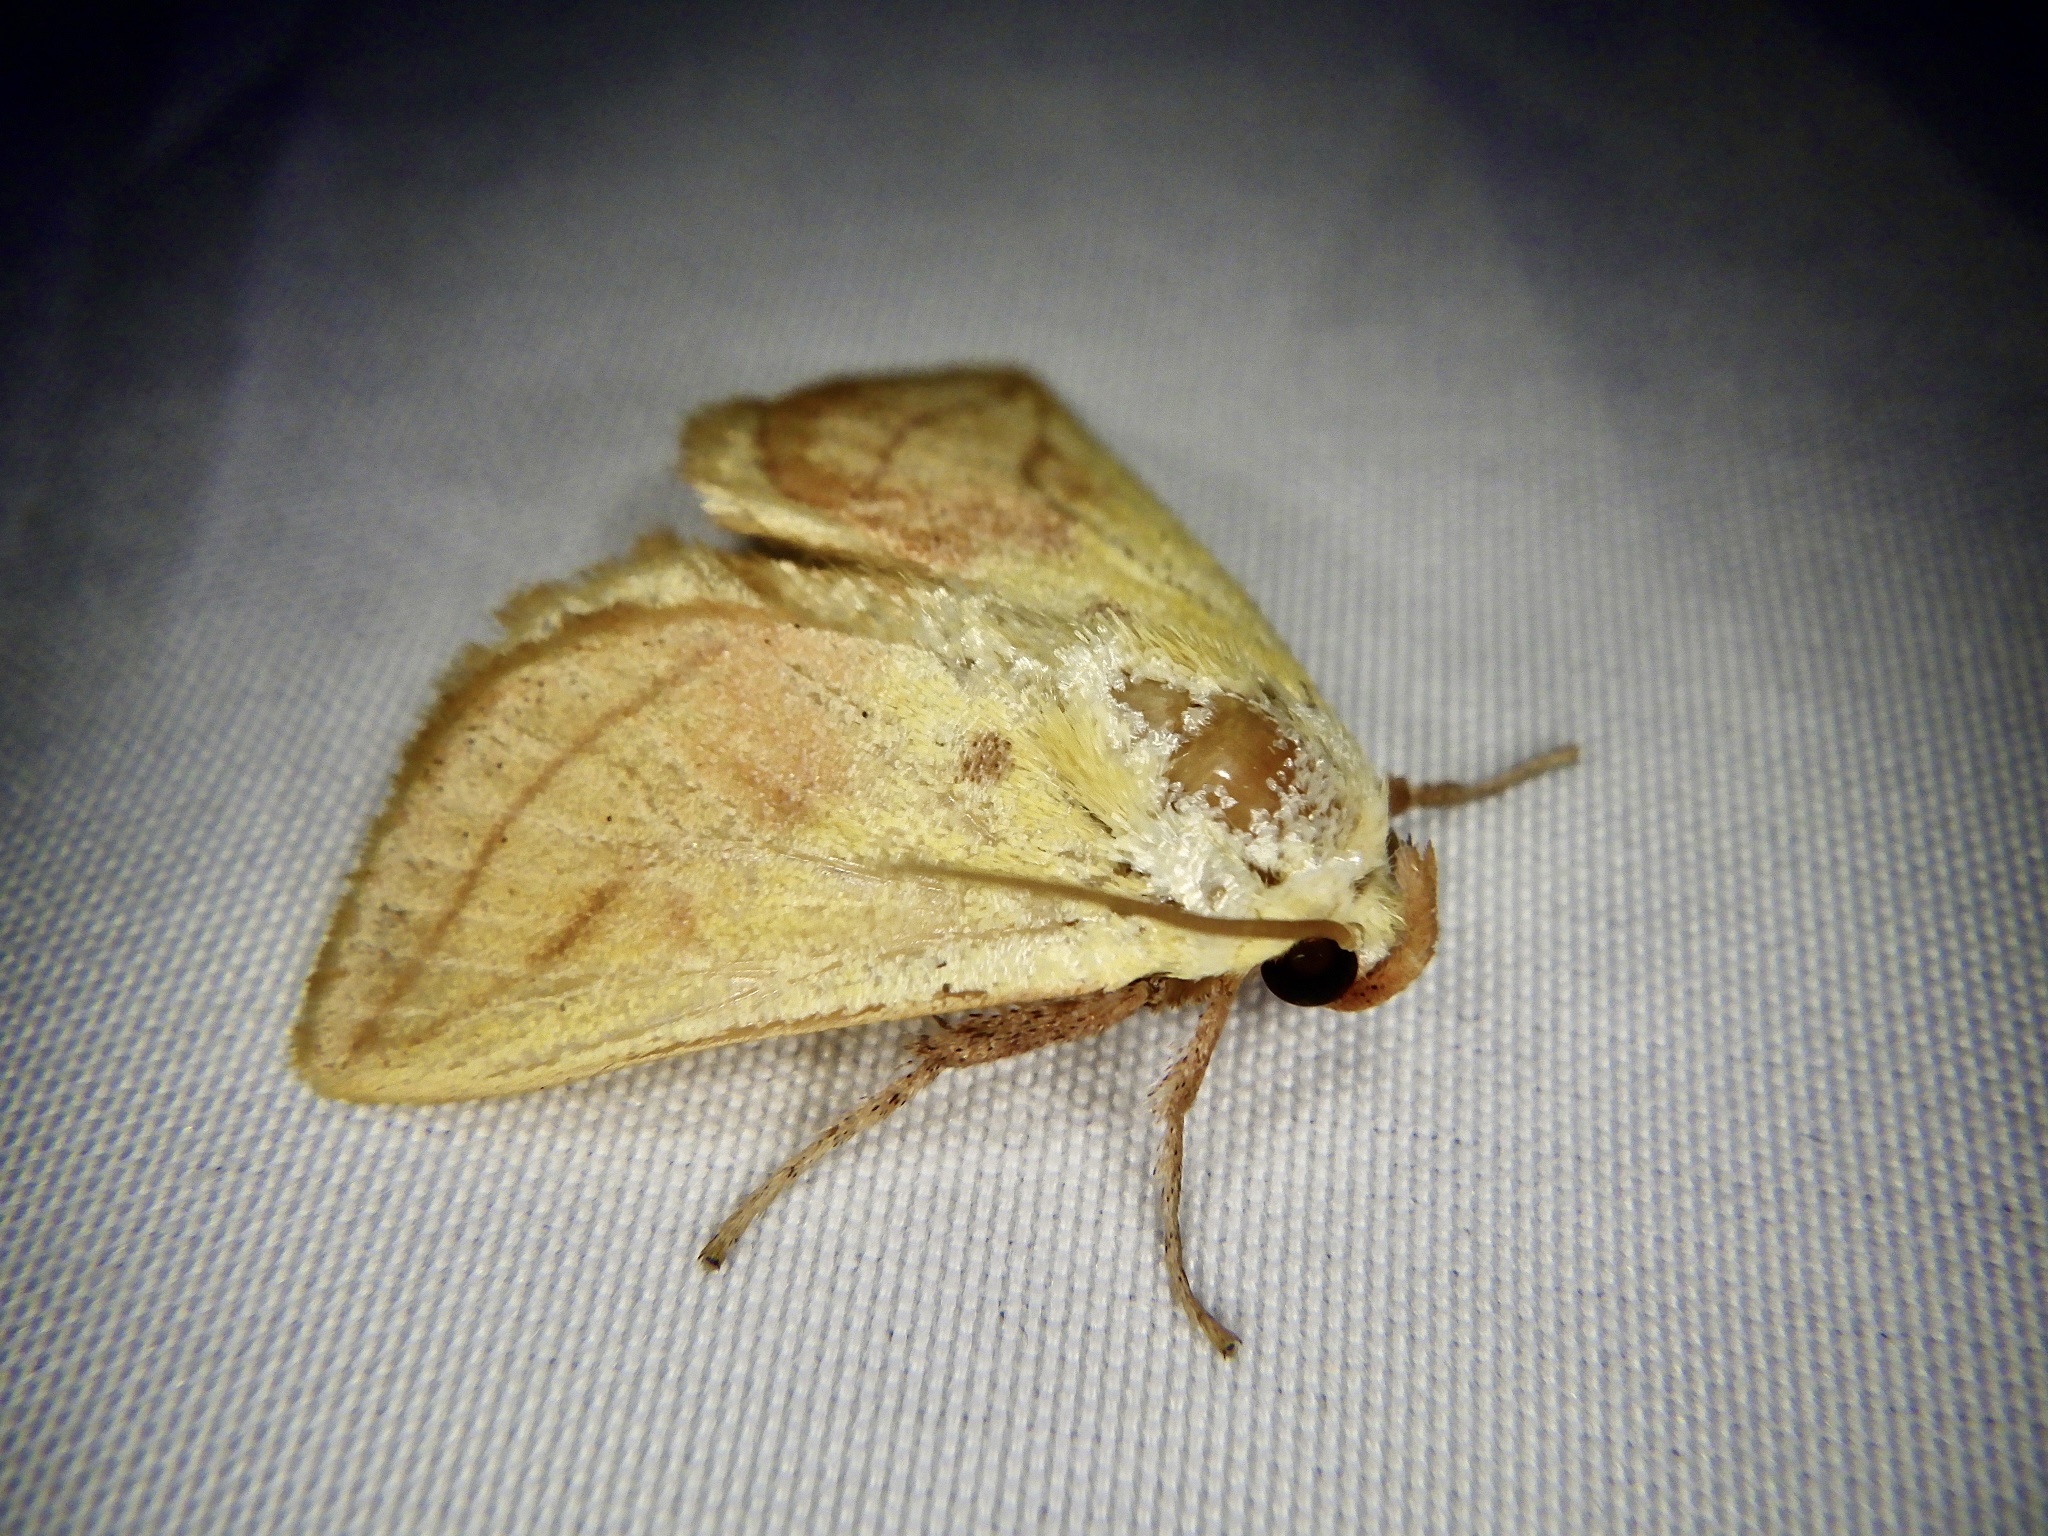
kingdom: Animalia
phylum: Arthropoda
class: Insecta
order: Lepidoptera
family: Limacodidae
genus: Monema
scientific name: Monema flavescens
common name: Oriental moth
